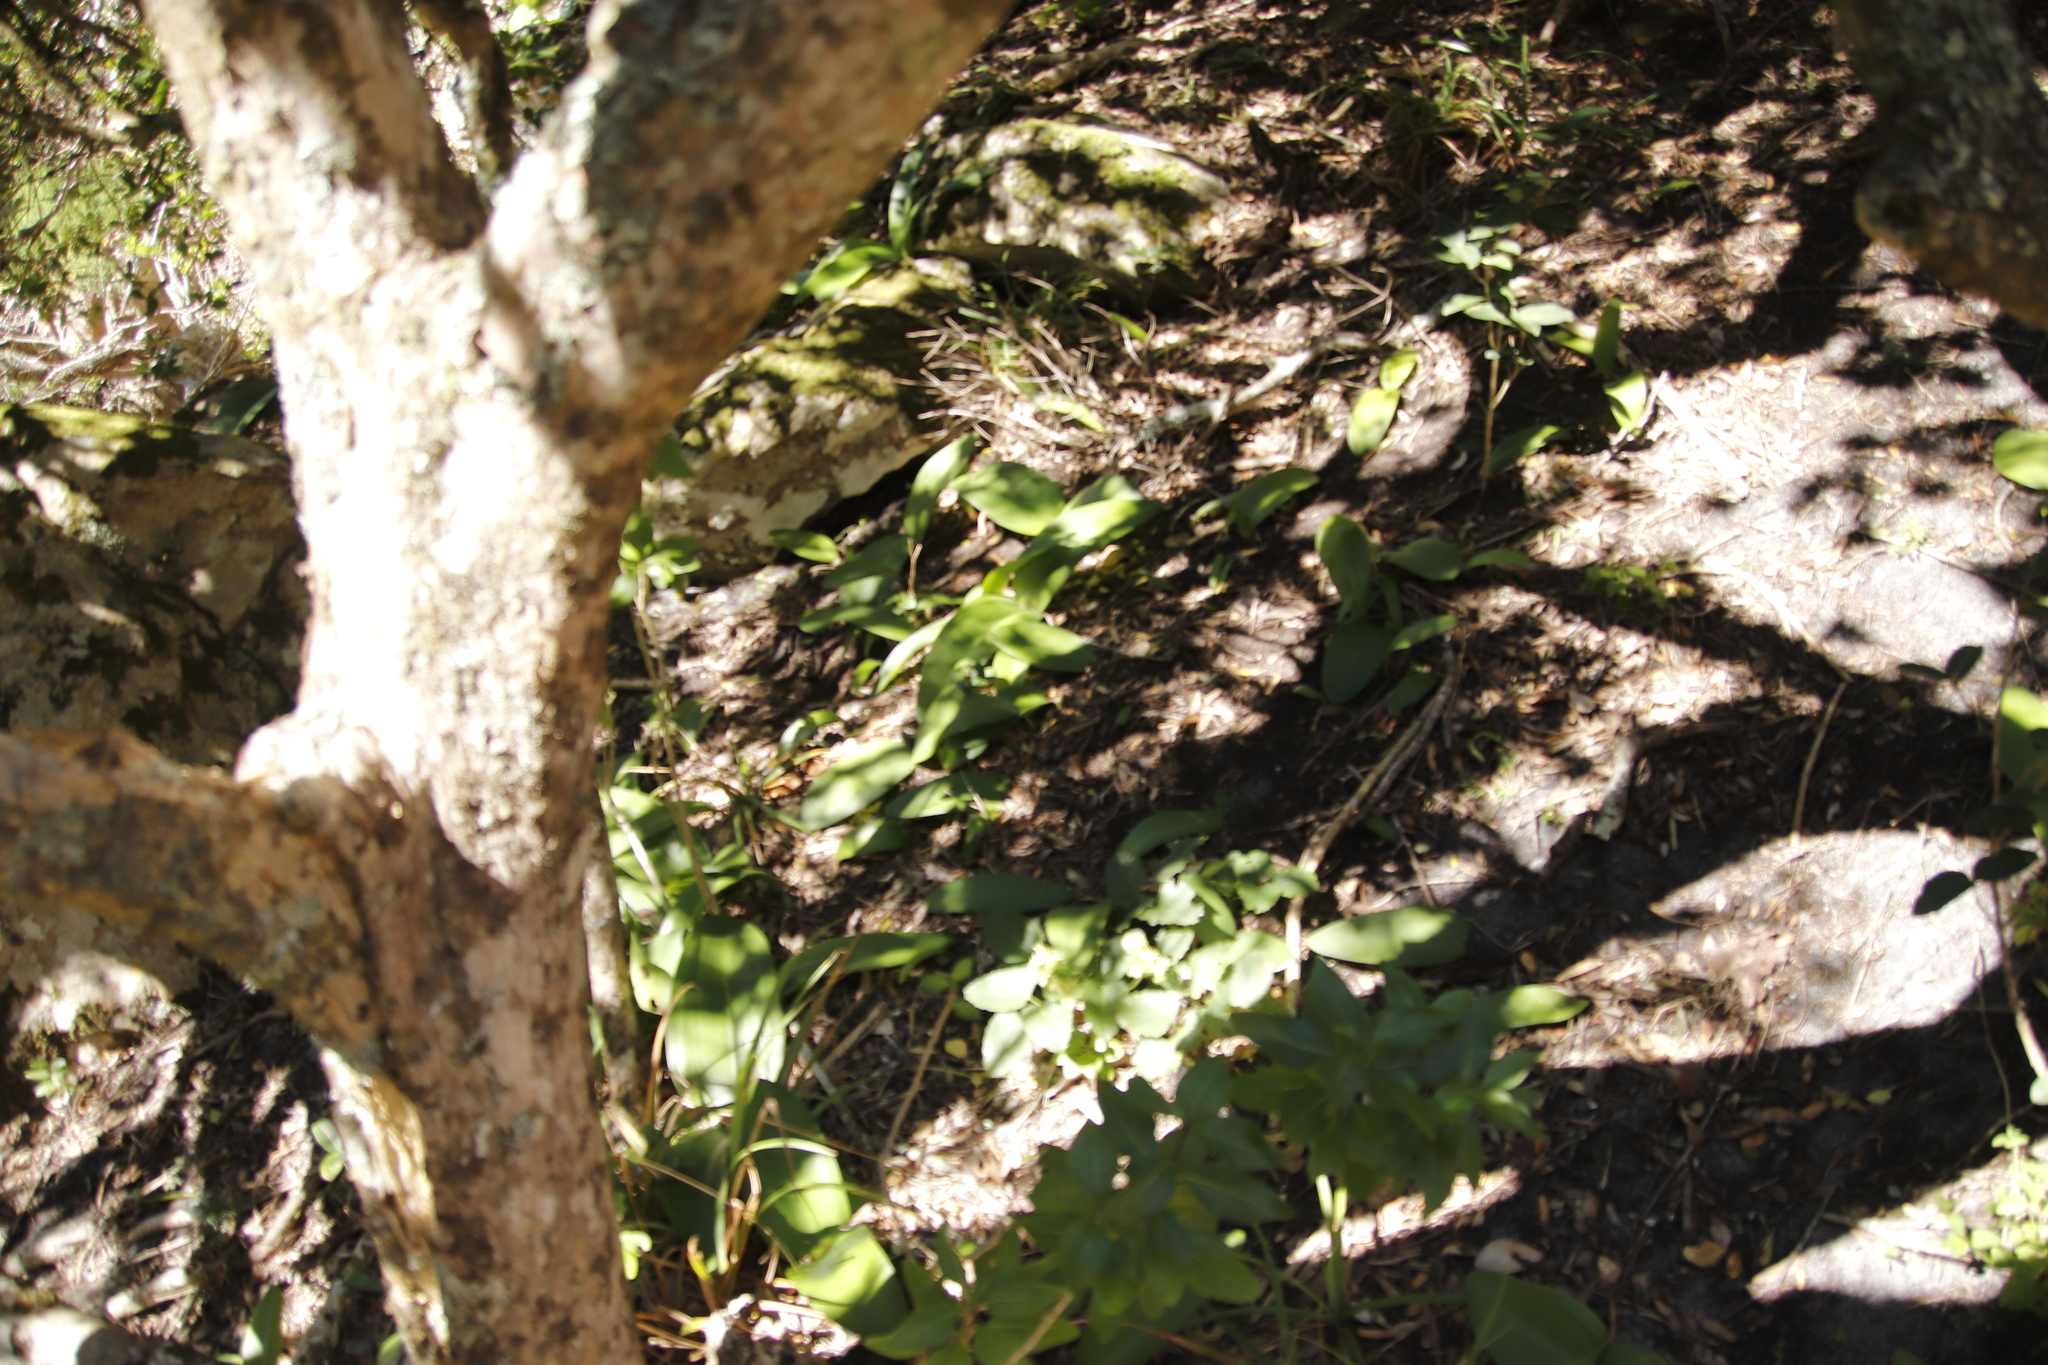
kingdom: Plantae
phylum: Tracheophyta
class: Liliopsida
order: Asparagales
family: Amaryllidaceae
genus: Haemanthus
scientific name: Haemanthus coccineus
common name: Cape-tulip
